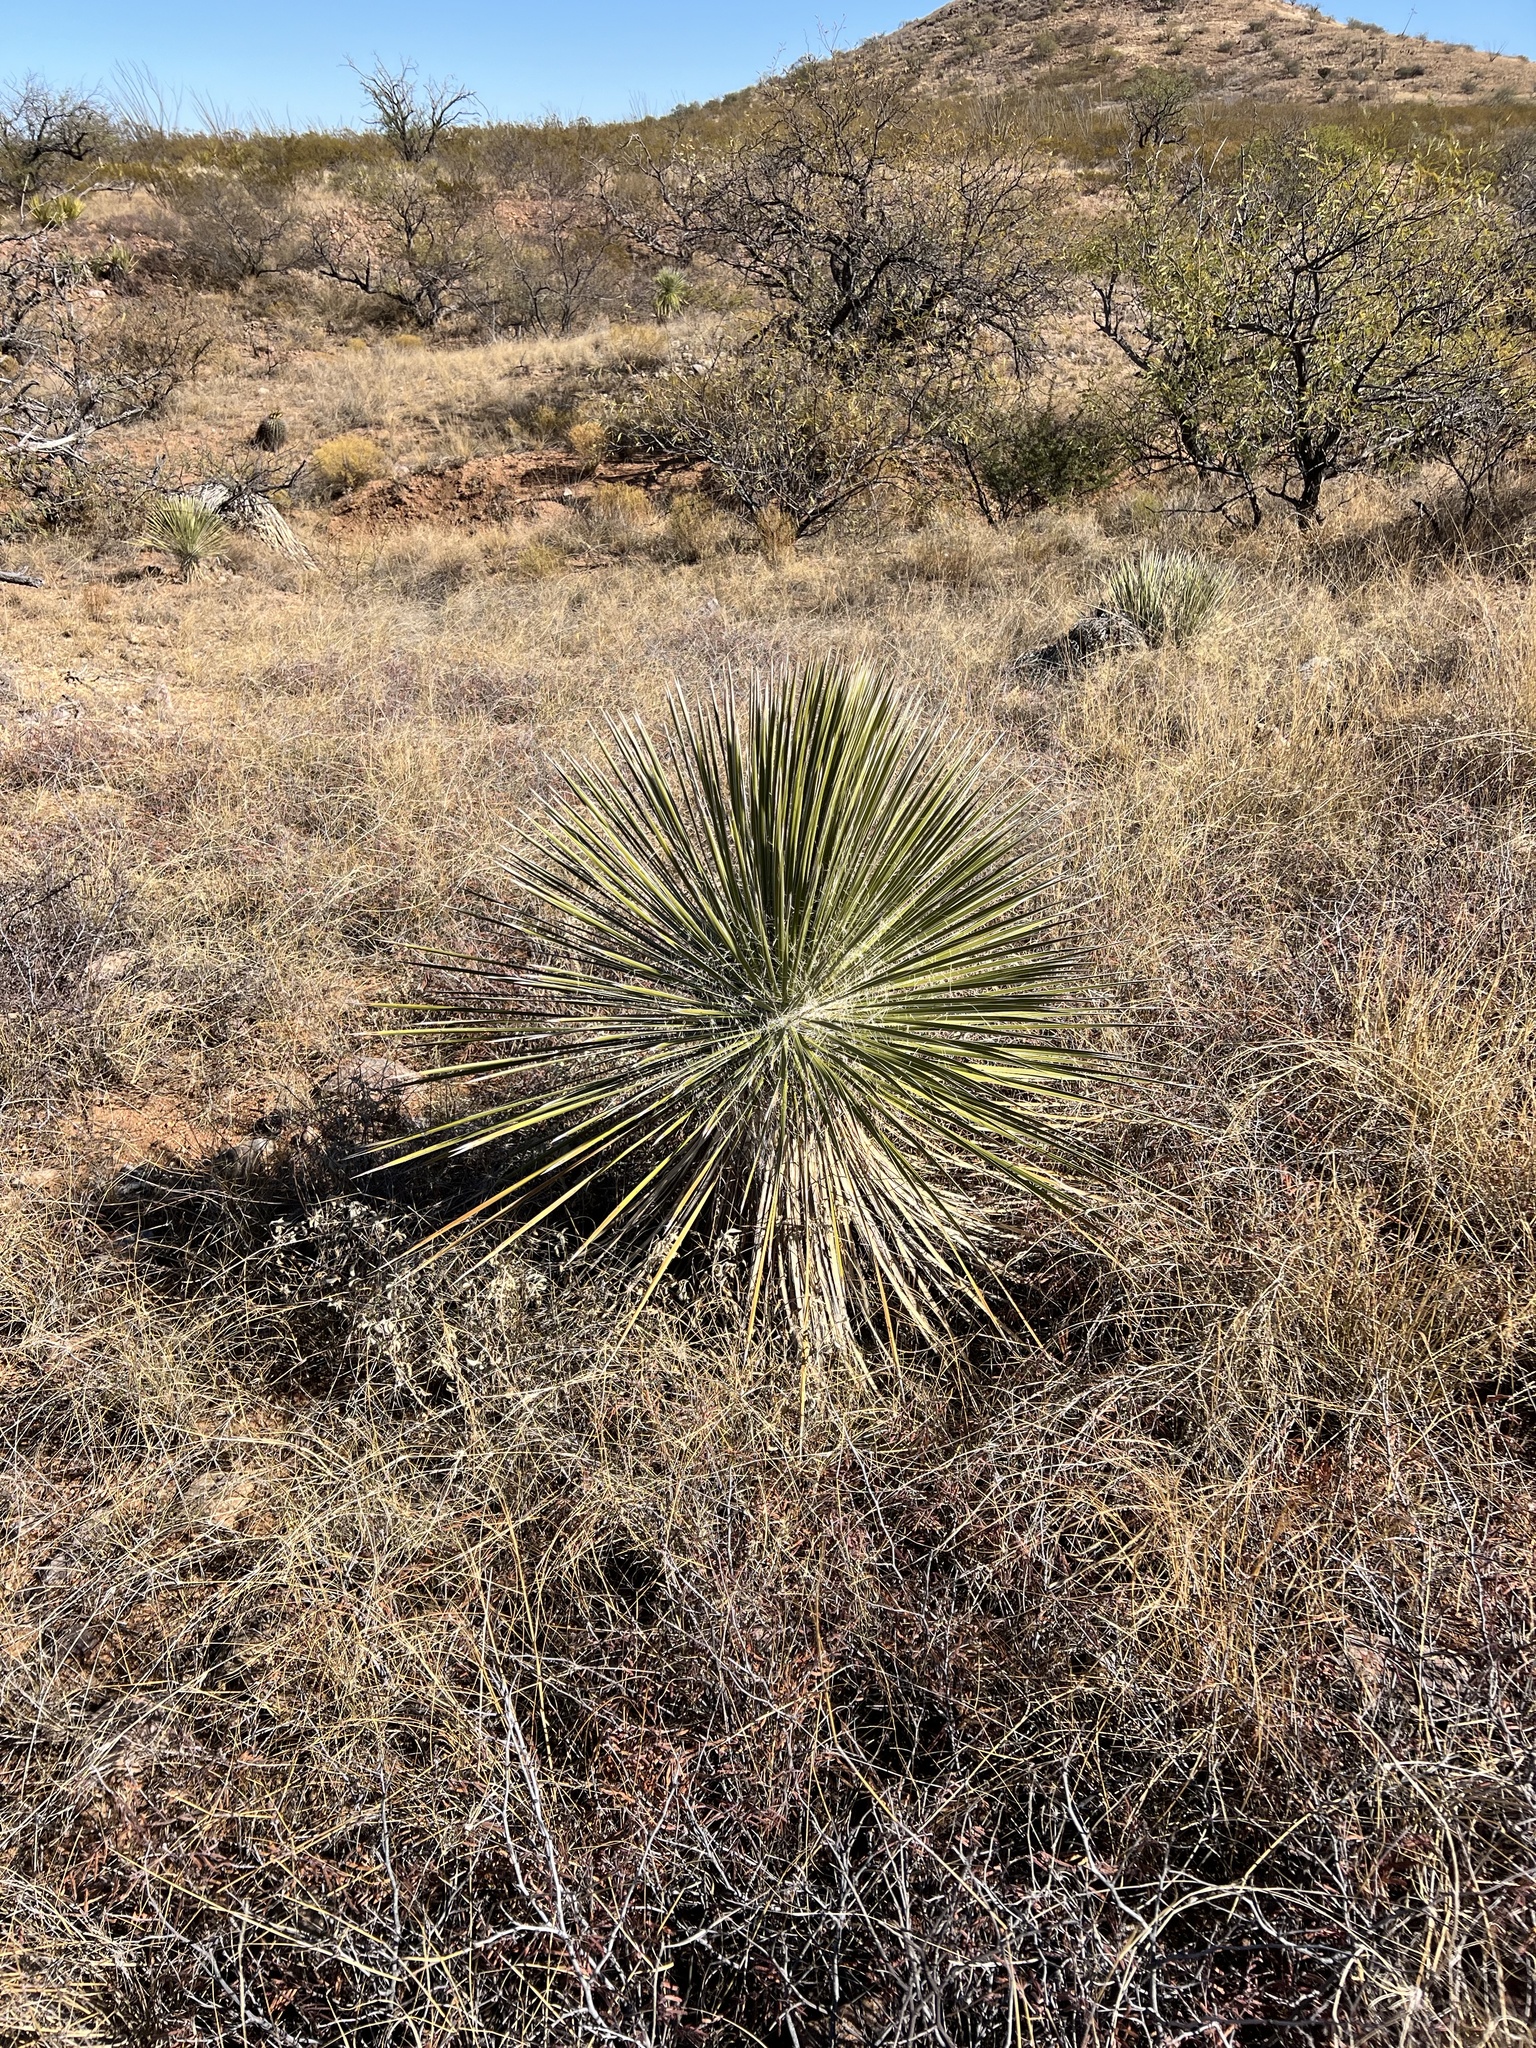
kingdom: Plantae
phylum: Tracheophyta
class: Liliopsida
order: Asparagales
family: Asparagaceae
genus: Yucca
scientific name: Yucca elata
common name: Palmella
